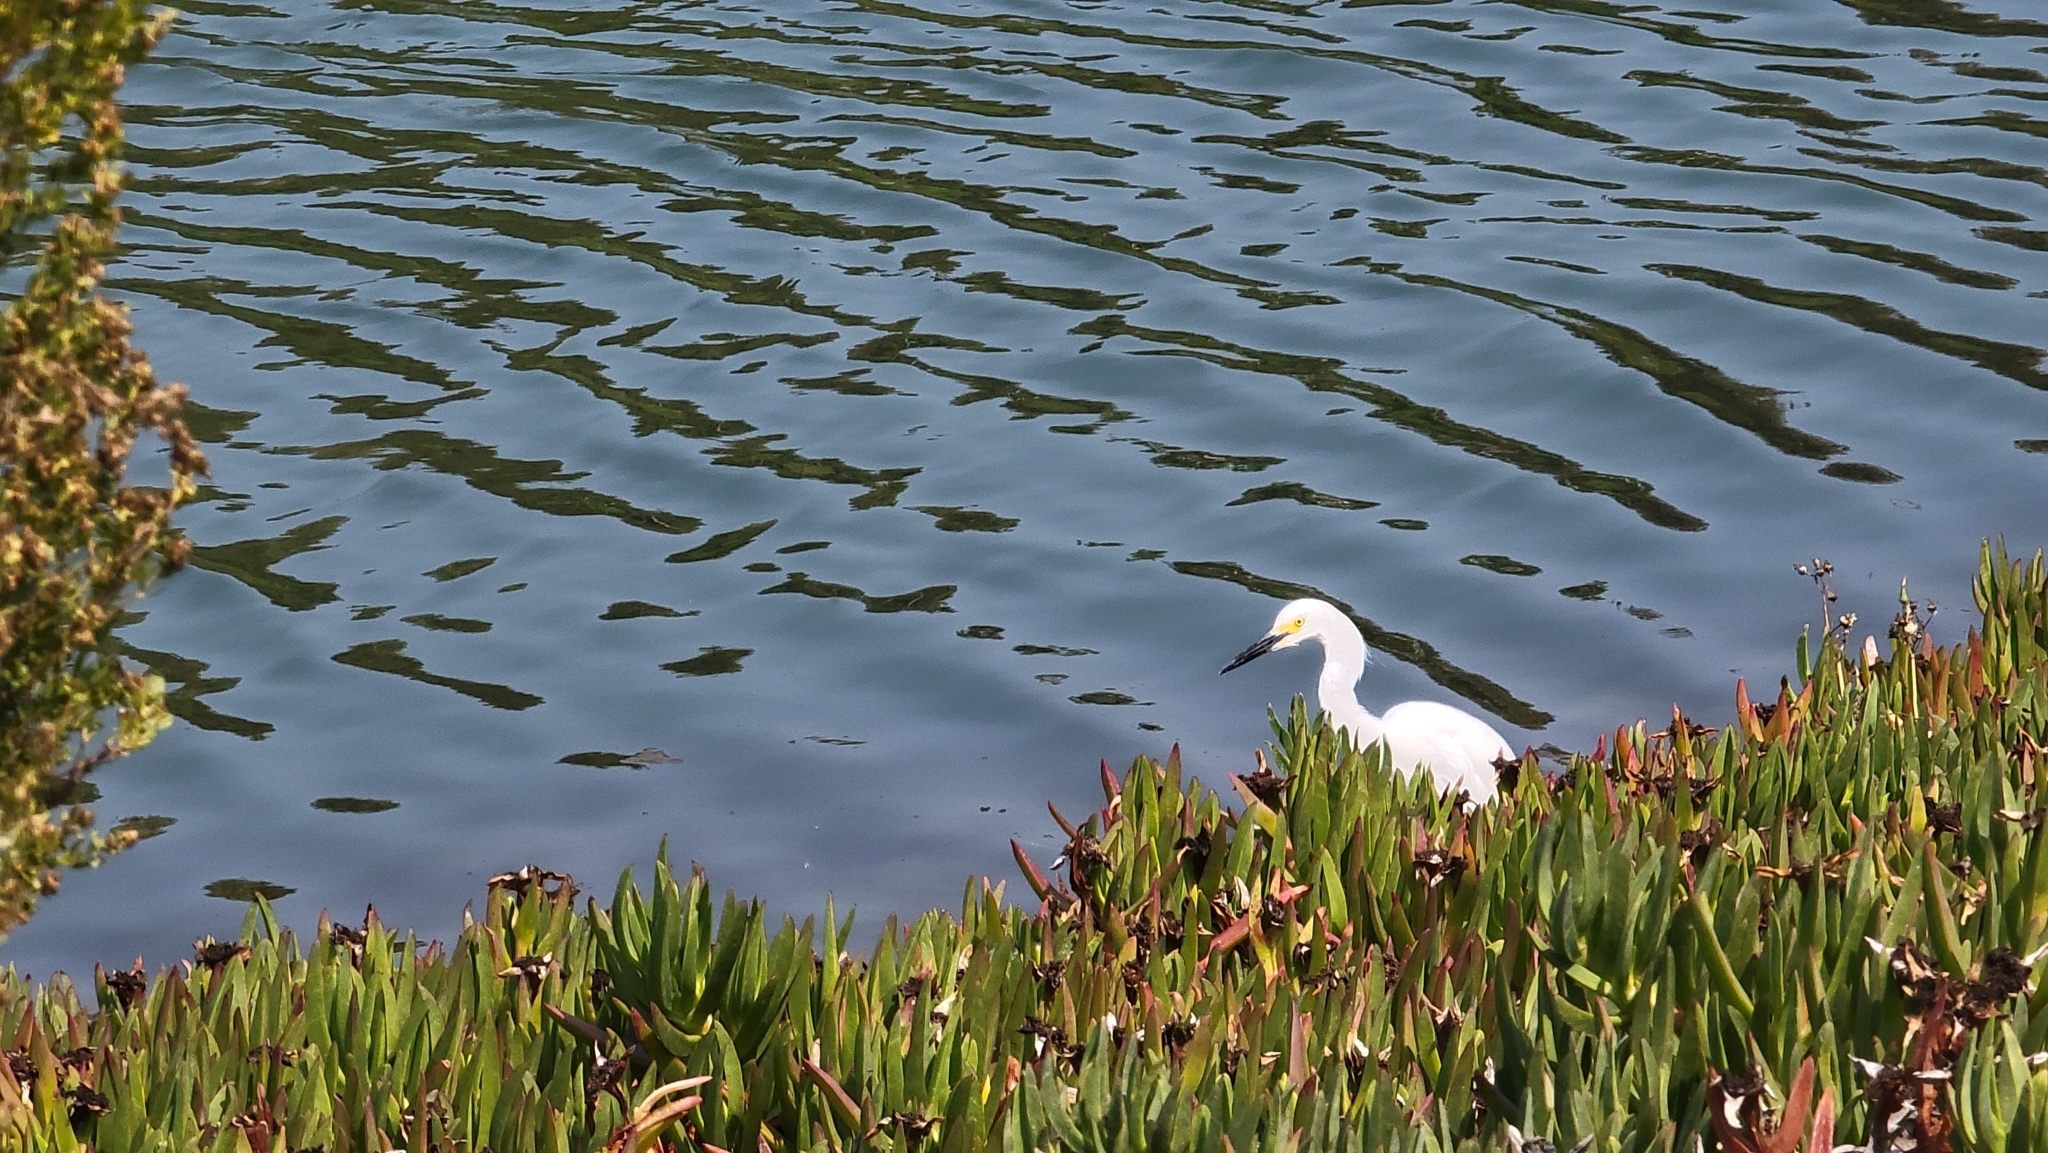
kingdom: Animalia
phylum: Chordata
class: Aves
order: Pelecaniformes
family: Ardeidae
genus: Egretta
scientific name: Egretta thula
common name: Snowy egret
